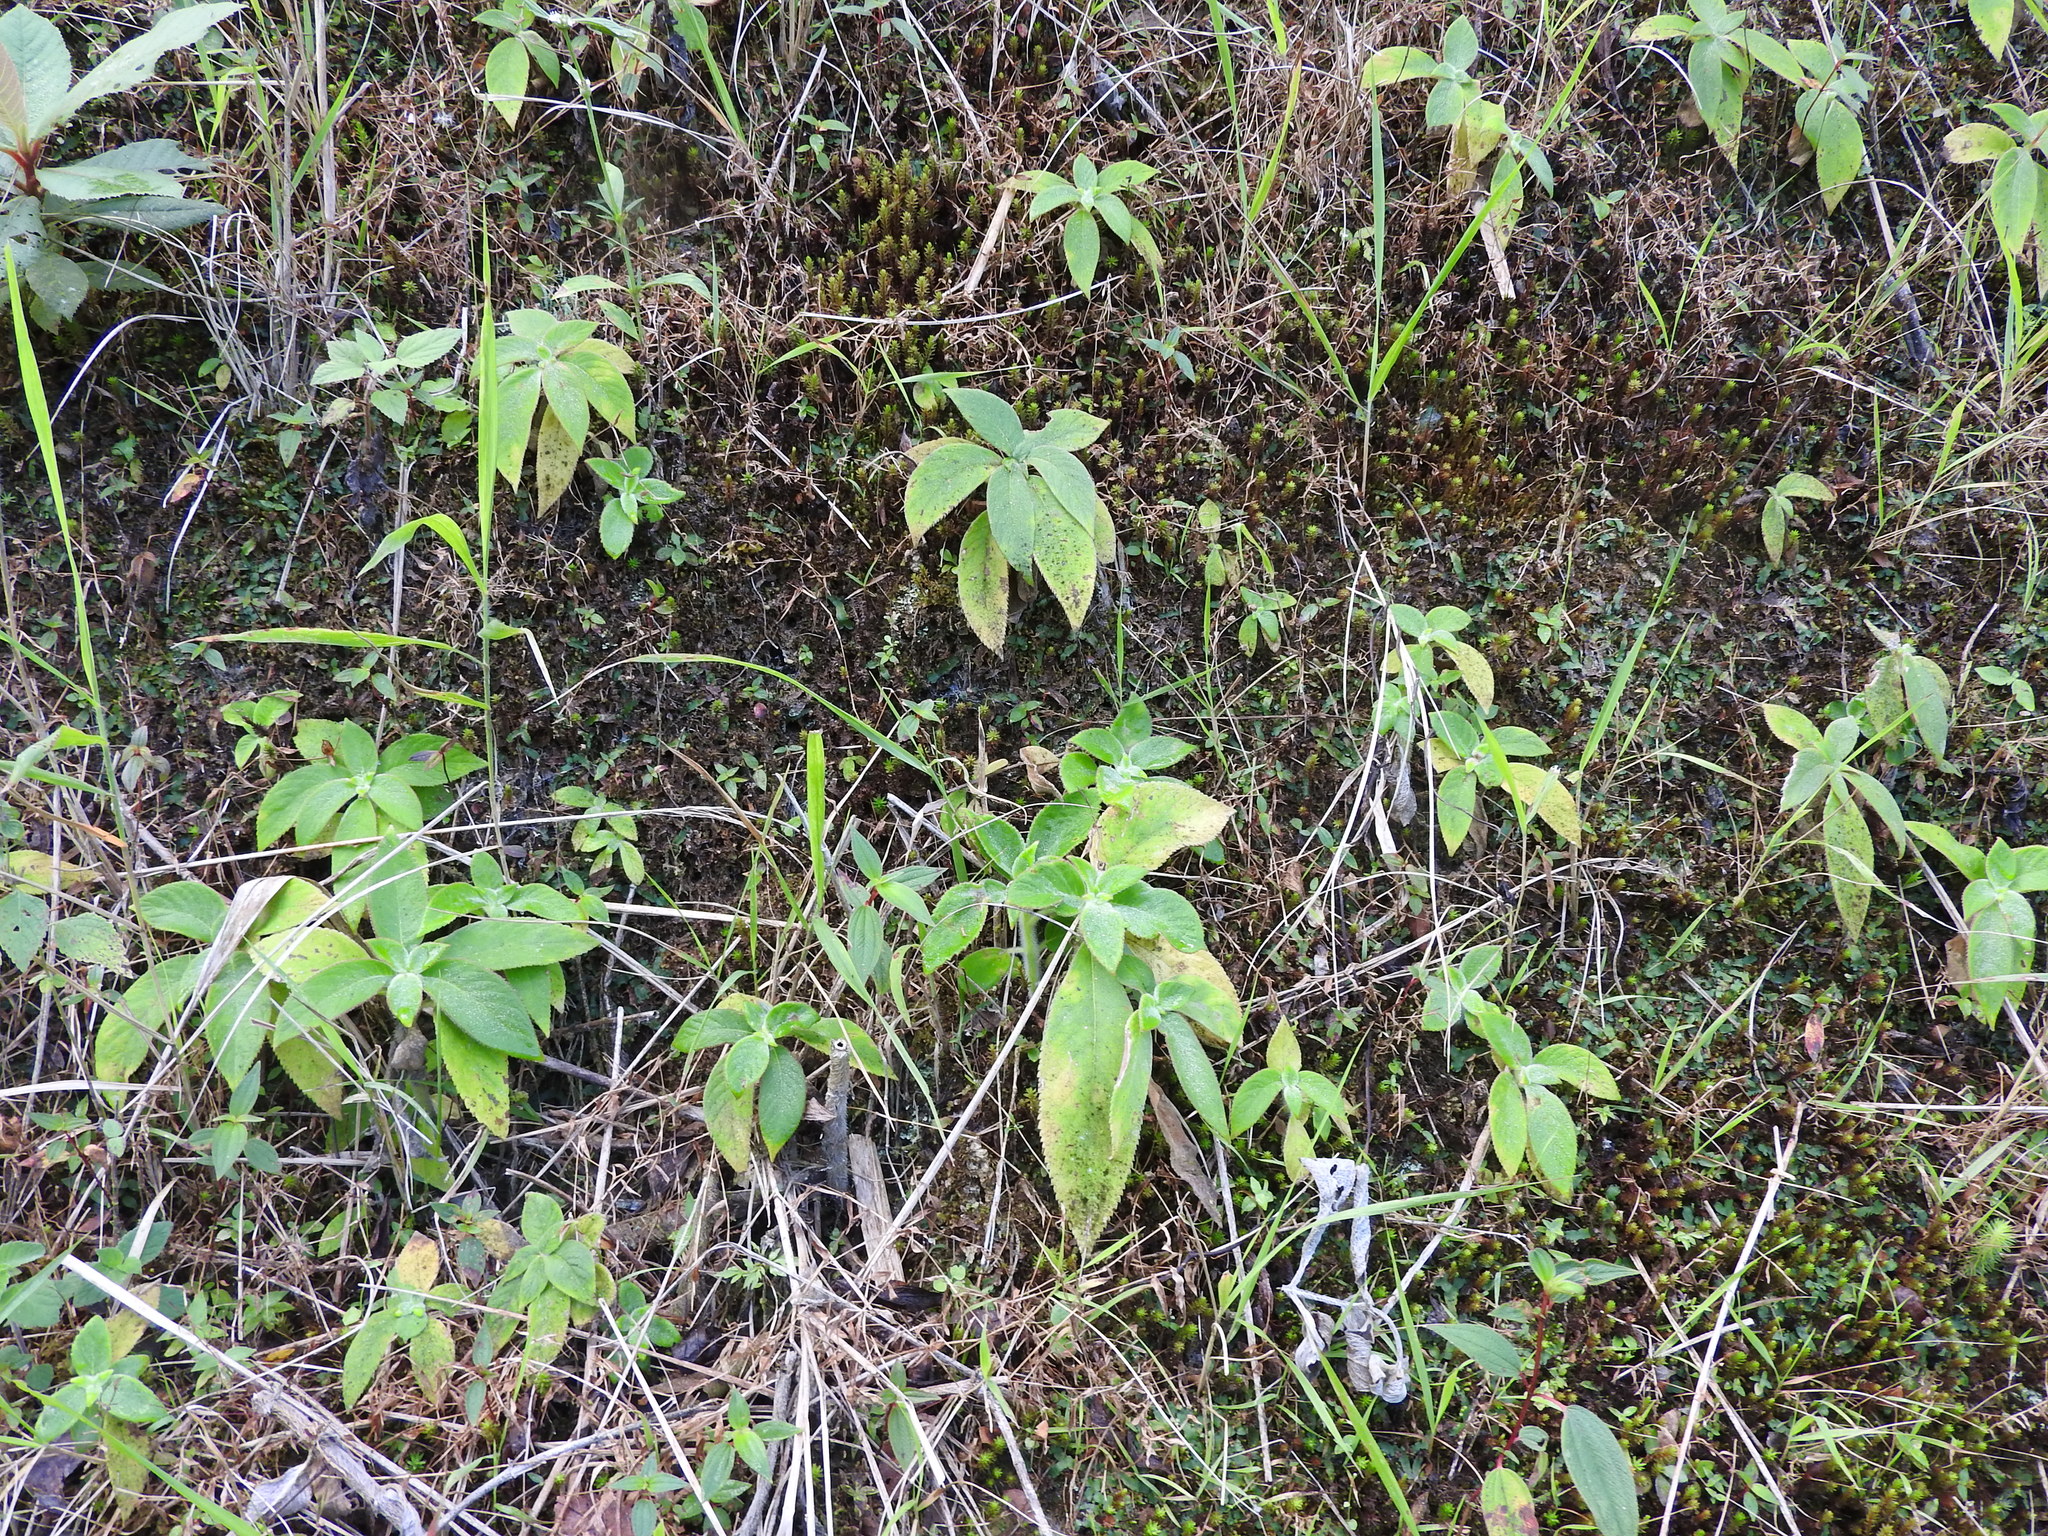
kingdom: Plantae
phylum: Tracheophyta
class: Magnoliopsida
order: Lamiales
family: Gesneriaceae
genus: Kohleria
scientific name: Kohleria spicata
